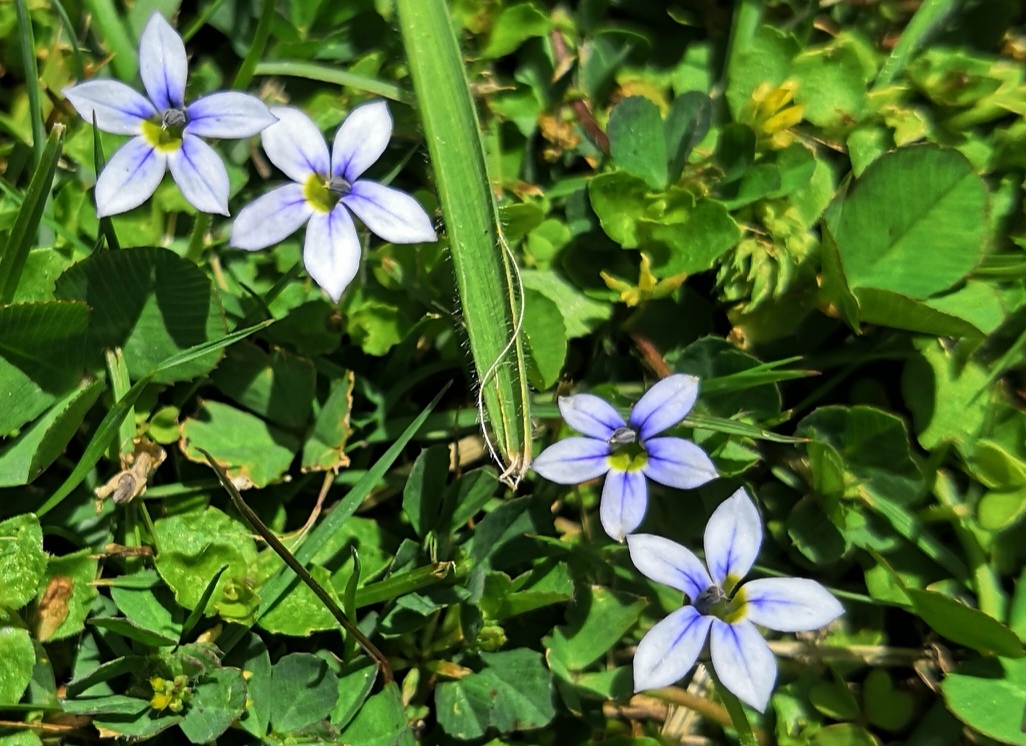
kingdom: Plantae
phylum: Tracheophyta
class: Magnoliopsida
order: Asterales
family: Campanulaceae
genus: Lobelia
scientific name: Lobelia pedunculata
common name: Matted pratia
